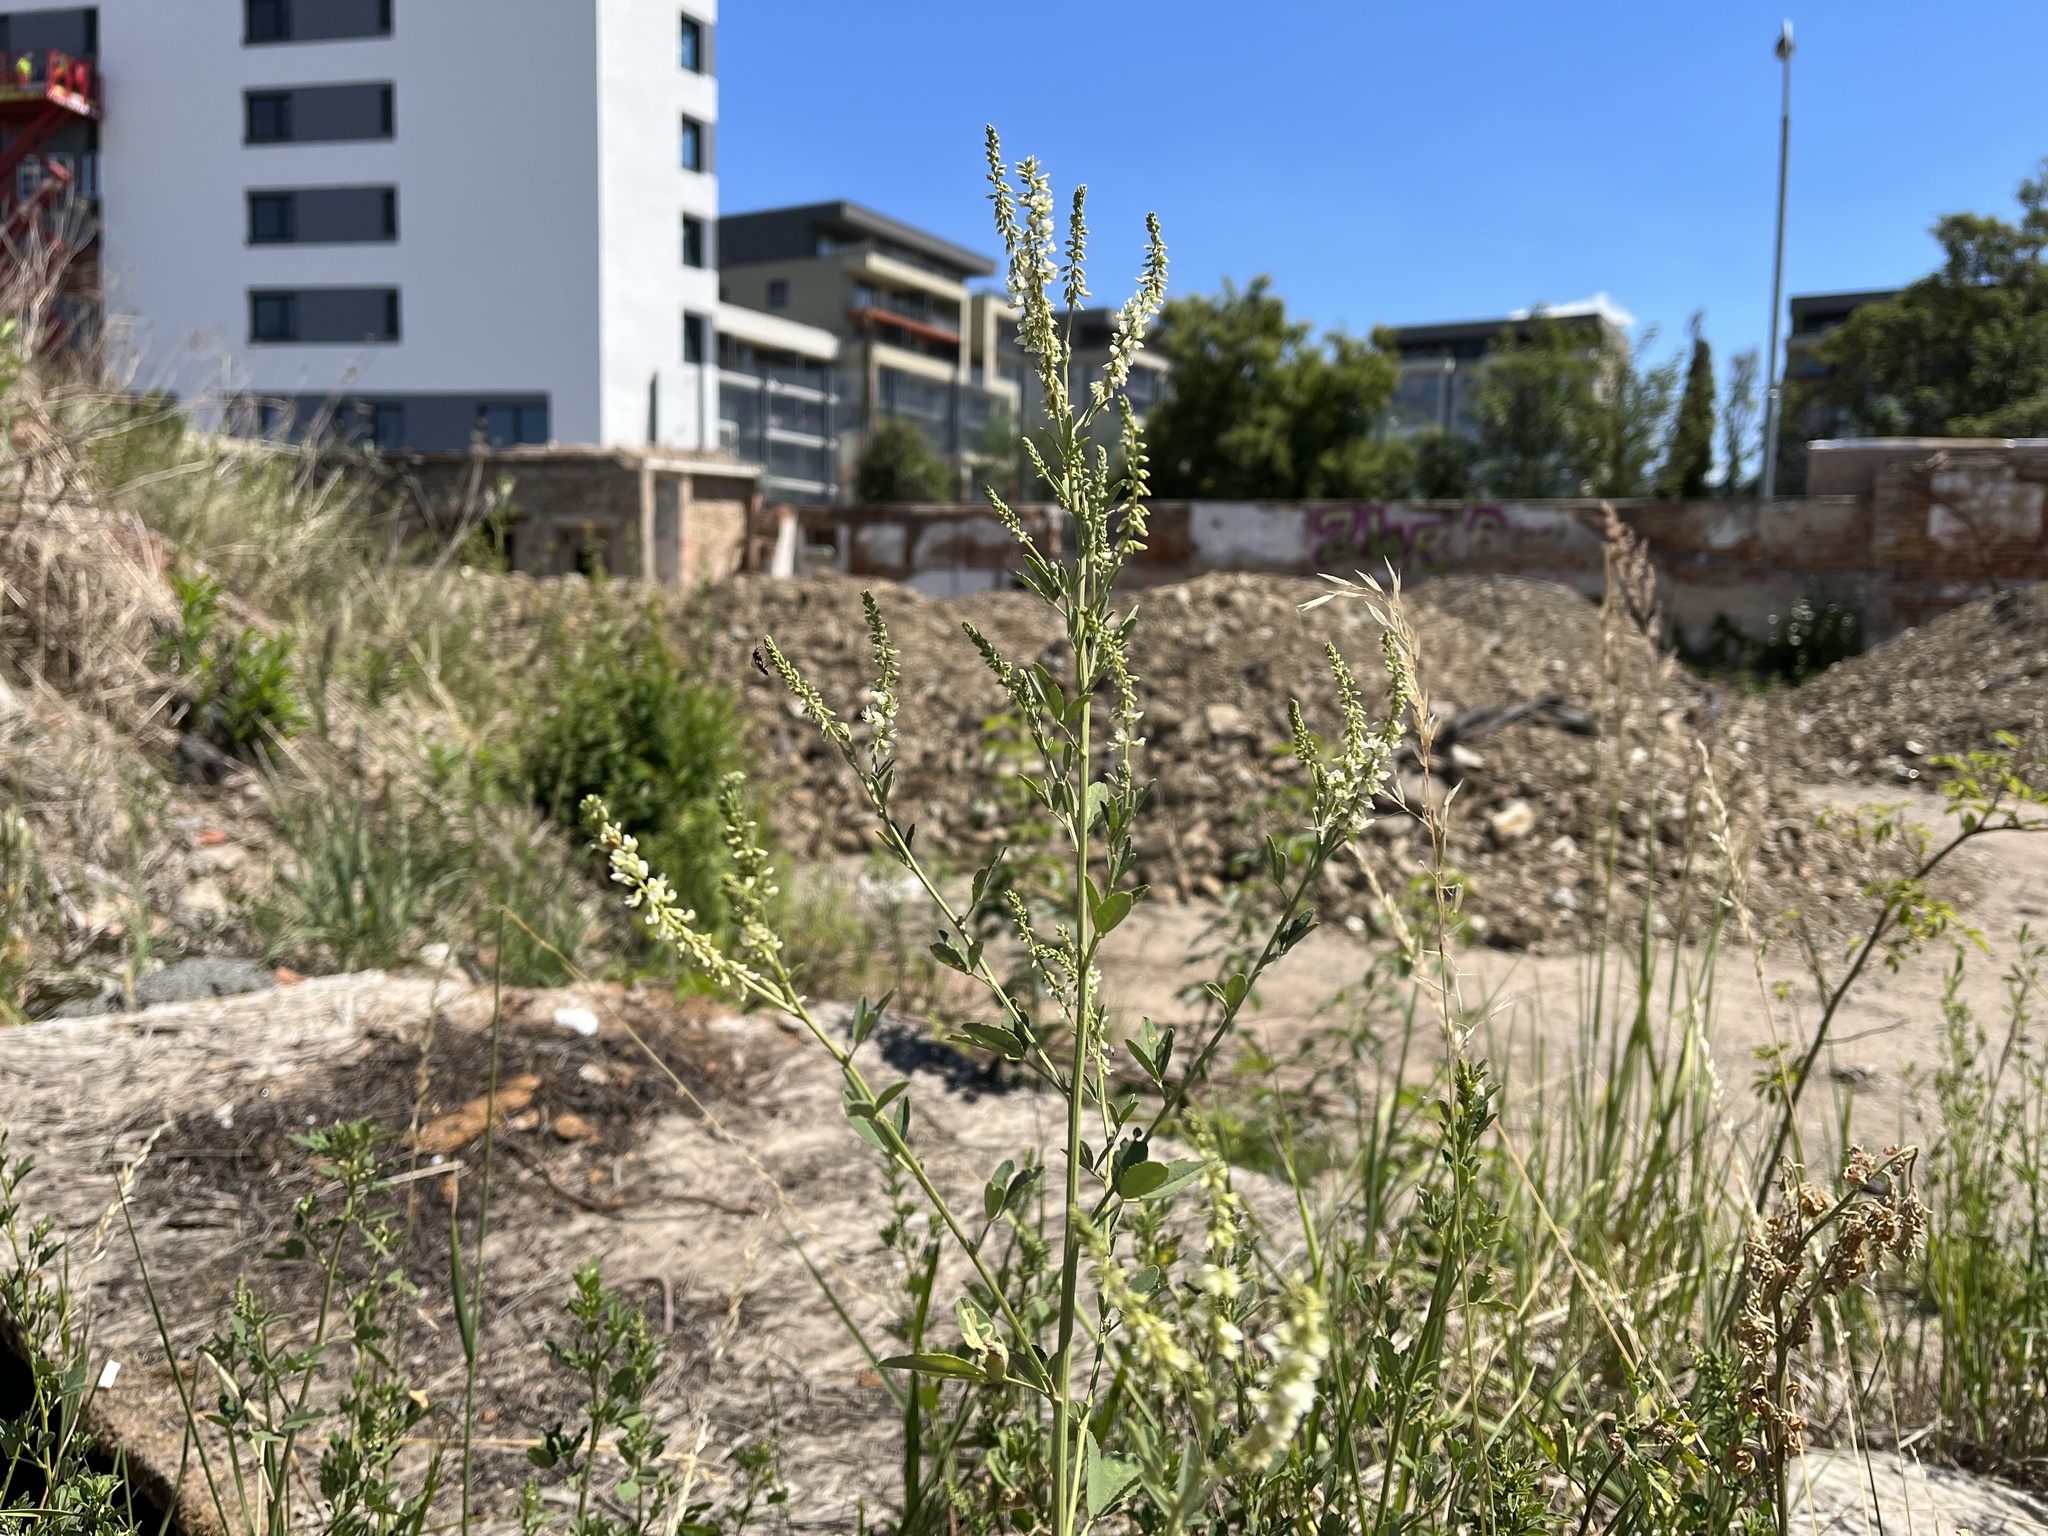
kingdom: Plantae
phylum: Tracheophyta
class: Magnoliopsida
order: Fabales
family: Fabaceae
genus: Melilotus
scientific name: Melilotus albus
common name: White melilot
